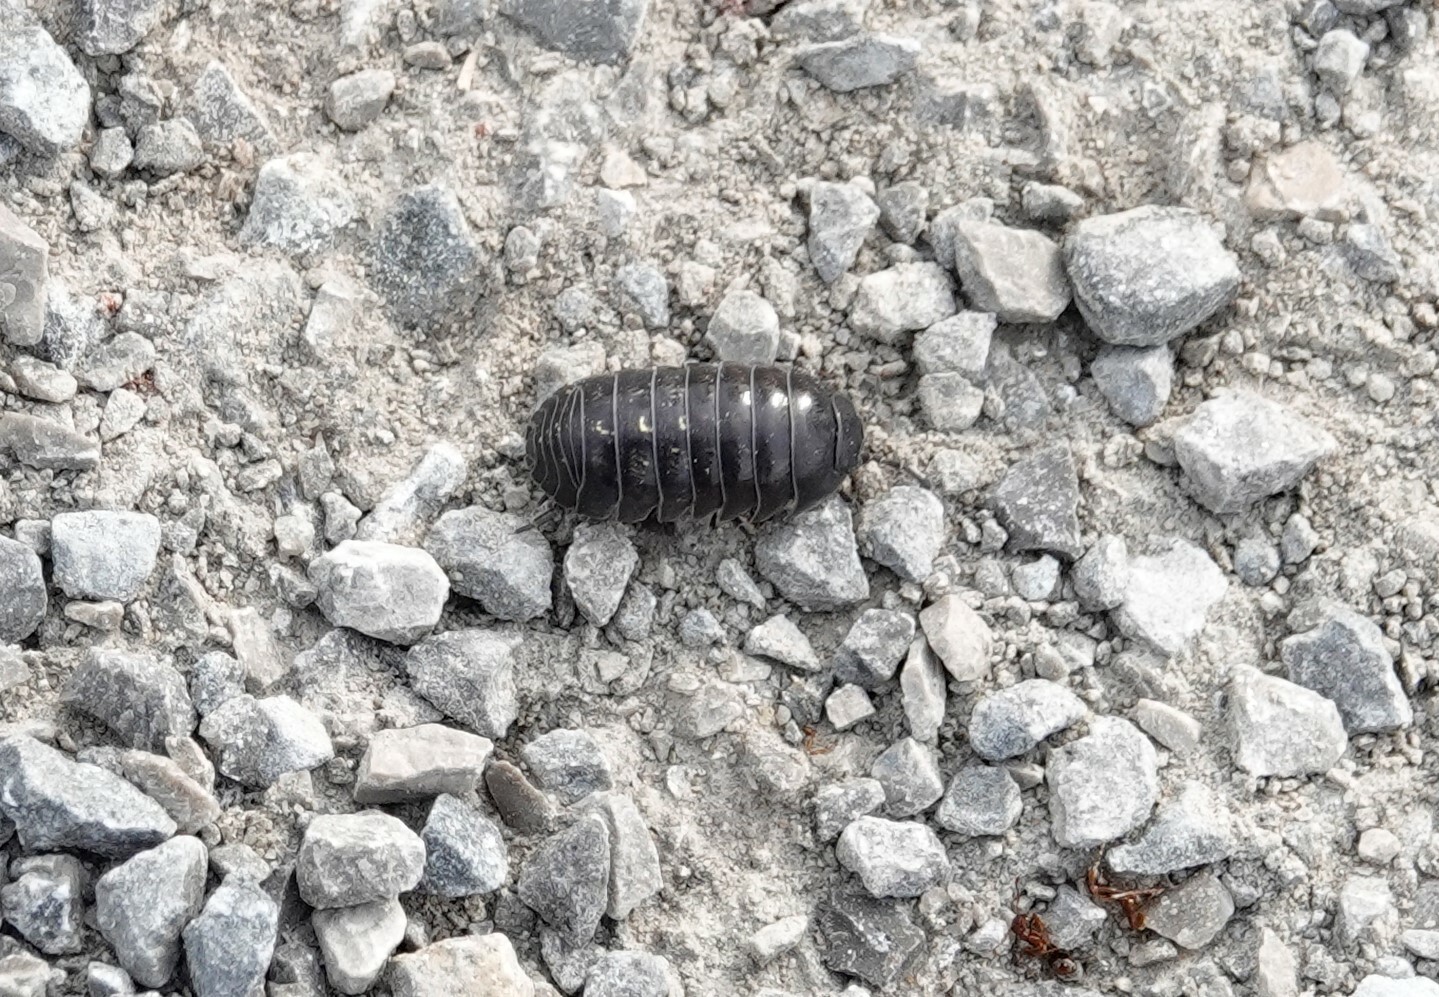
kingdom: Animalia
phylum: Arthropoda
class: Malacostraca
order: Isopoda
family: Armadillidiidae
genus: Armadillidium
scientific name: Armadillidium vulgare
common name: Common pill woodlouse
